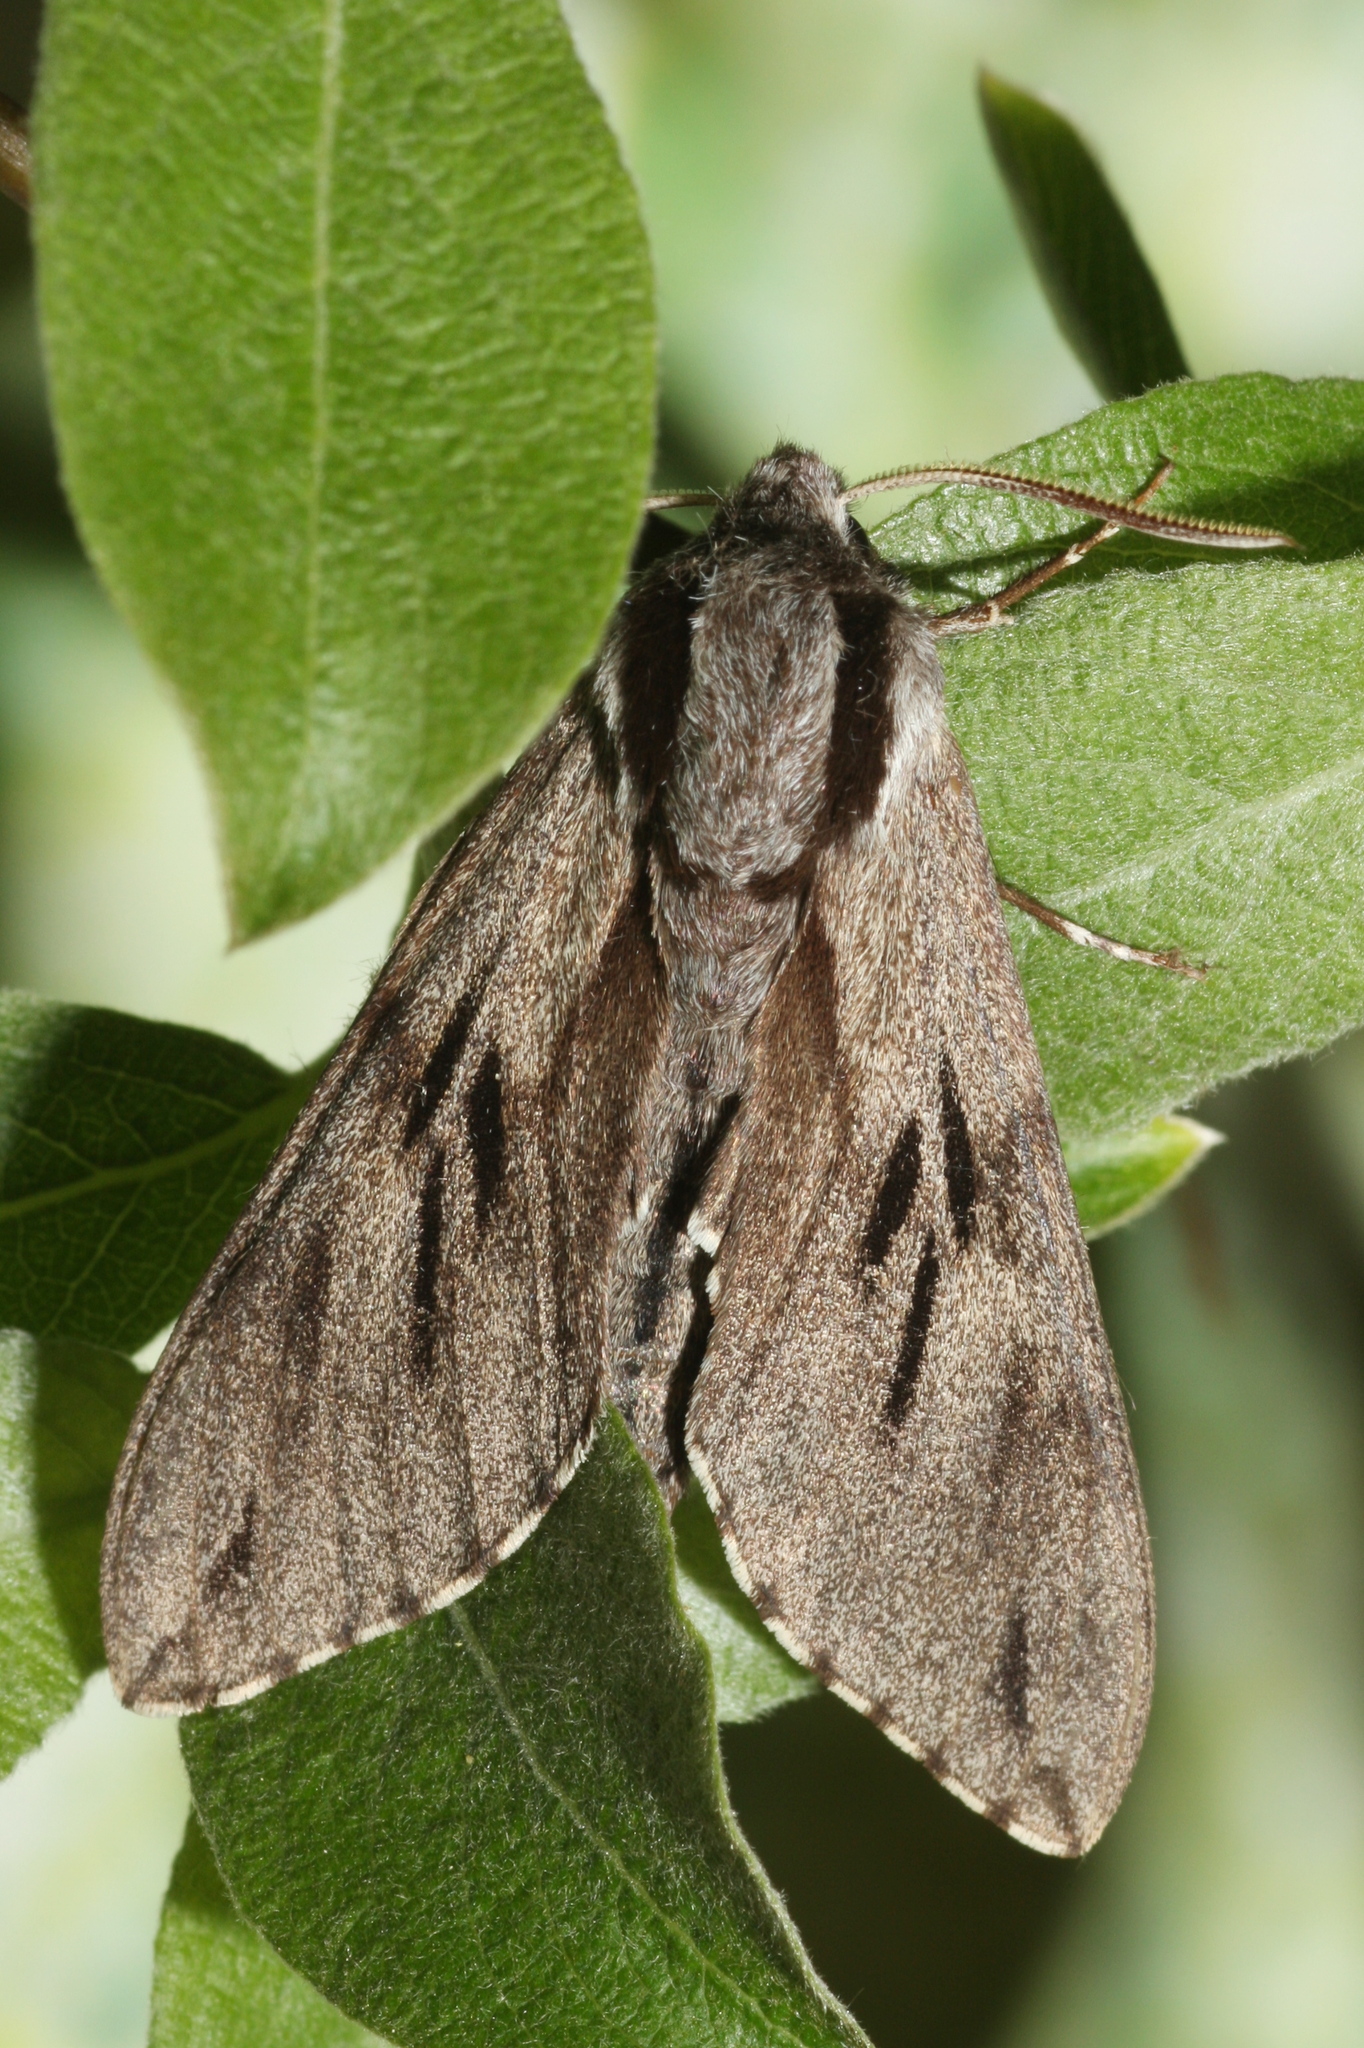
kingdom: Animalia
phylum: Arthropoda
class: Insecta
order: Lepidoptera
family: Sphingidae
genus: Sphinx
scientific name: Sphinx pinastri
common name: Pine hawk-moth
